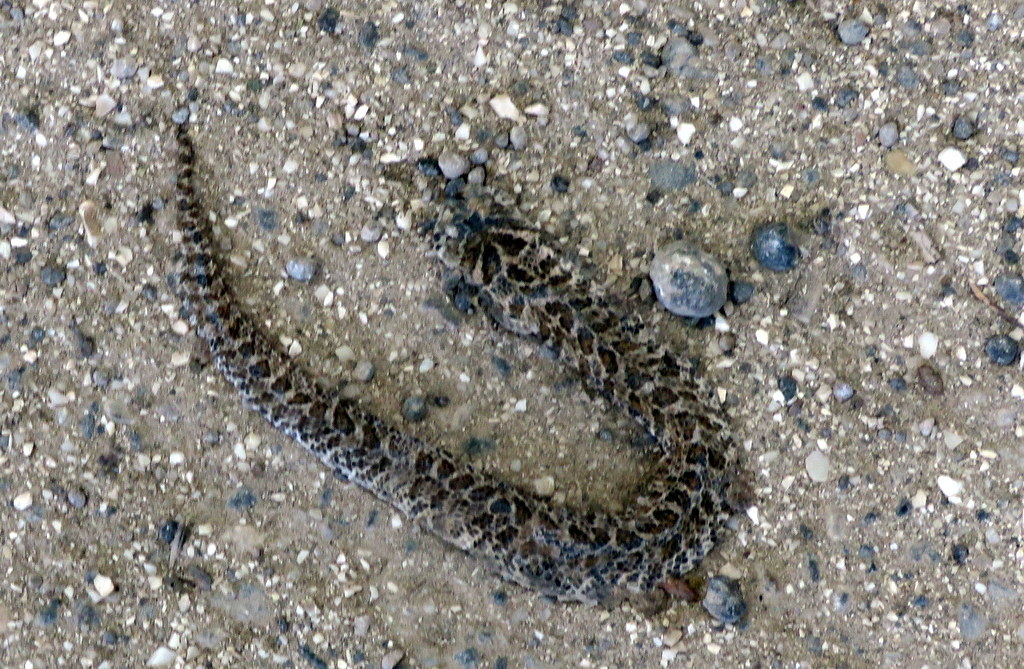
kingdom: Animalia
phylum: Chordata
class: Squamata
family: Colubridae
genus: Xenodon
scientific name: Xenodon dorbignyi
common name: South american hognose snake
